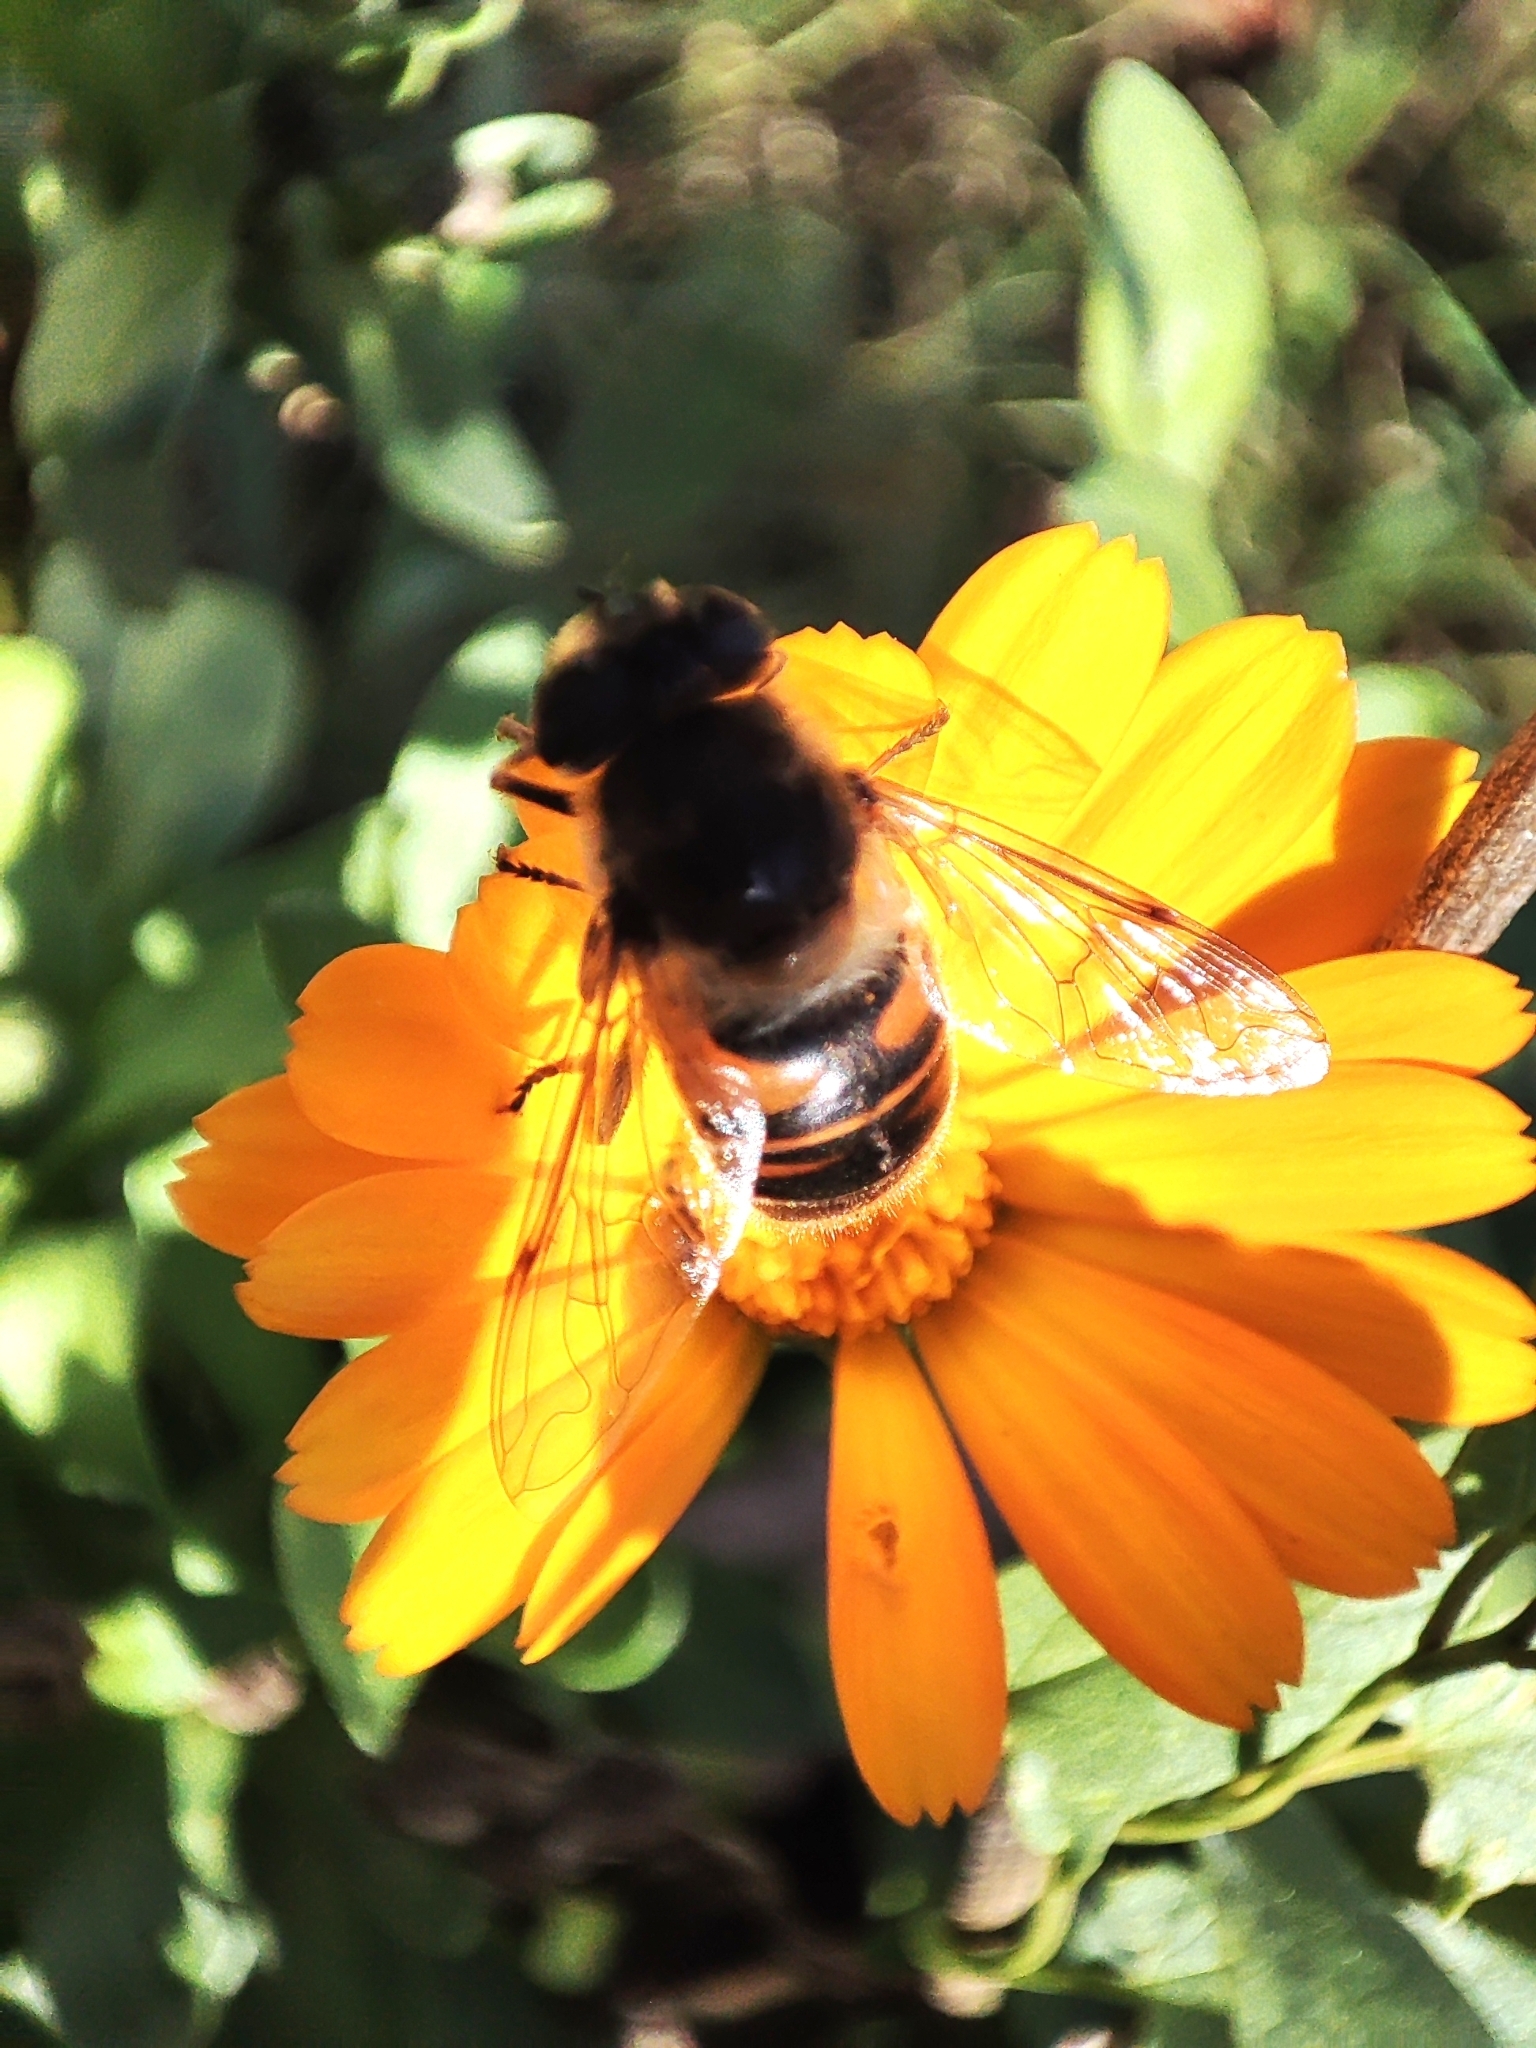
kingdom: Animalia
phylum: Arthropoda
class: Insecta
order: Diptera
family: Syrphidae
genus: Eristalis
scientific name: Eristalis tenax
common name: Drone fly
